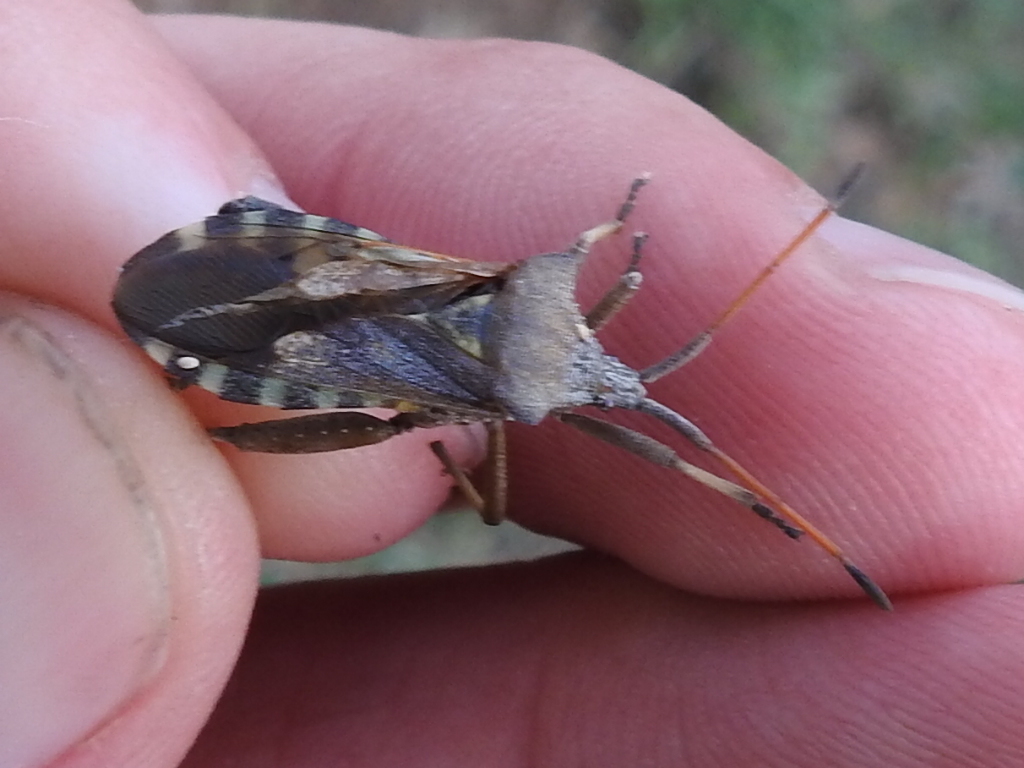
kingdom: Animalia
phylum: Arthropoda
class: Insecta
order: Hemiptera
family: Coreidae
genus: Mozena
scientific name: Mozena obtusa
